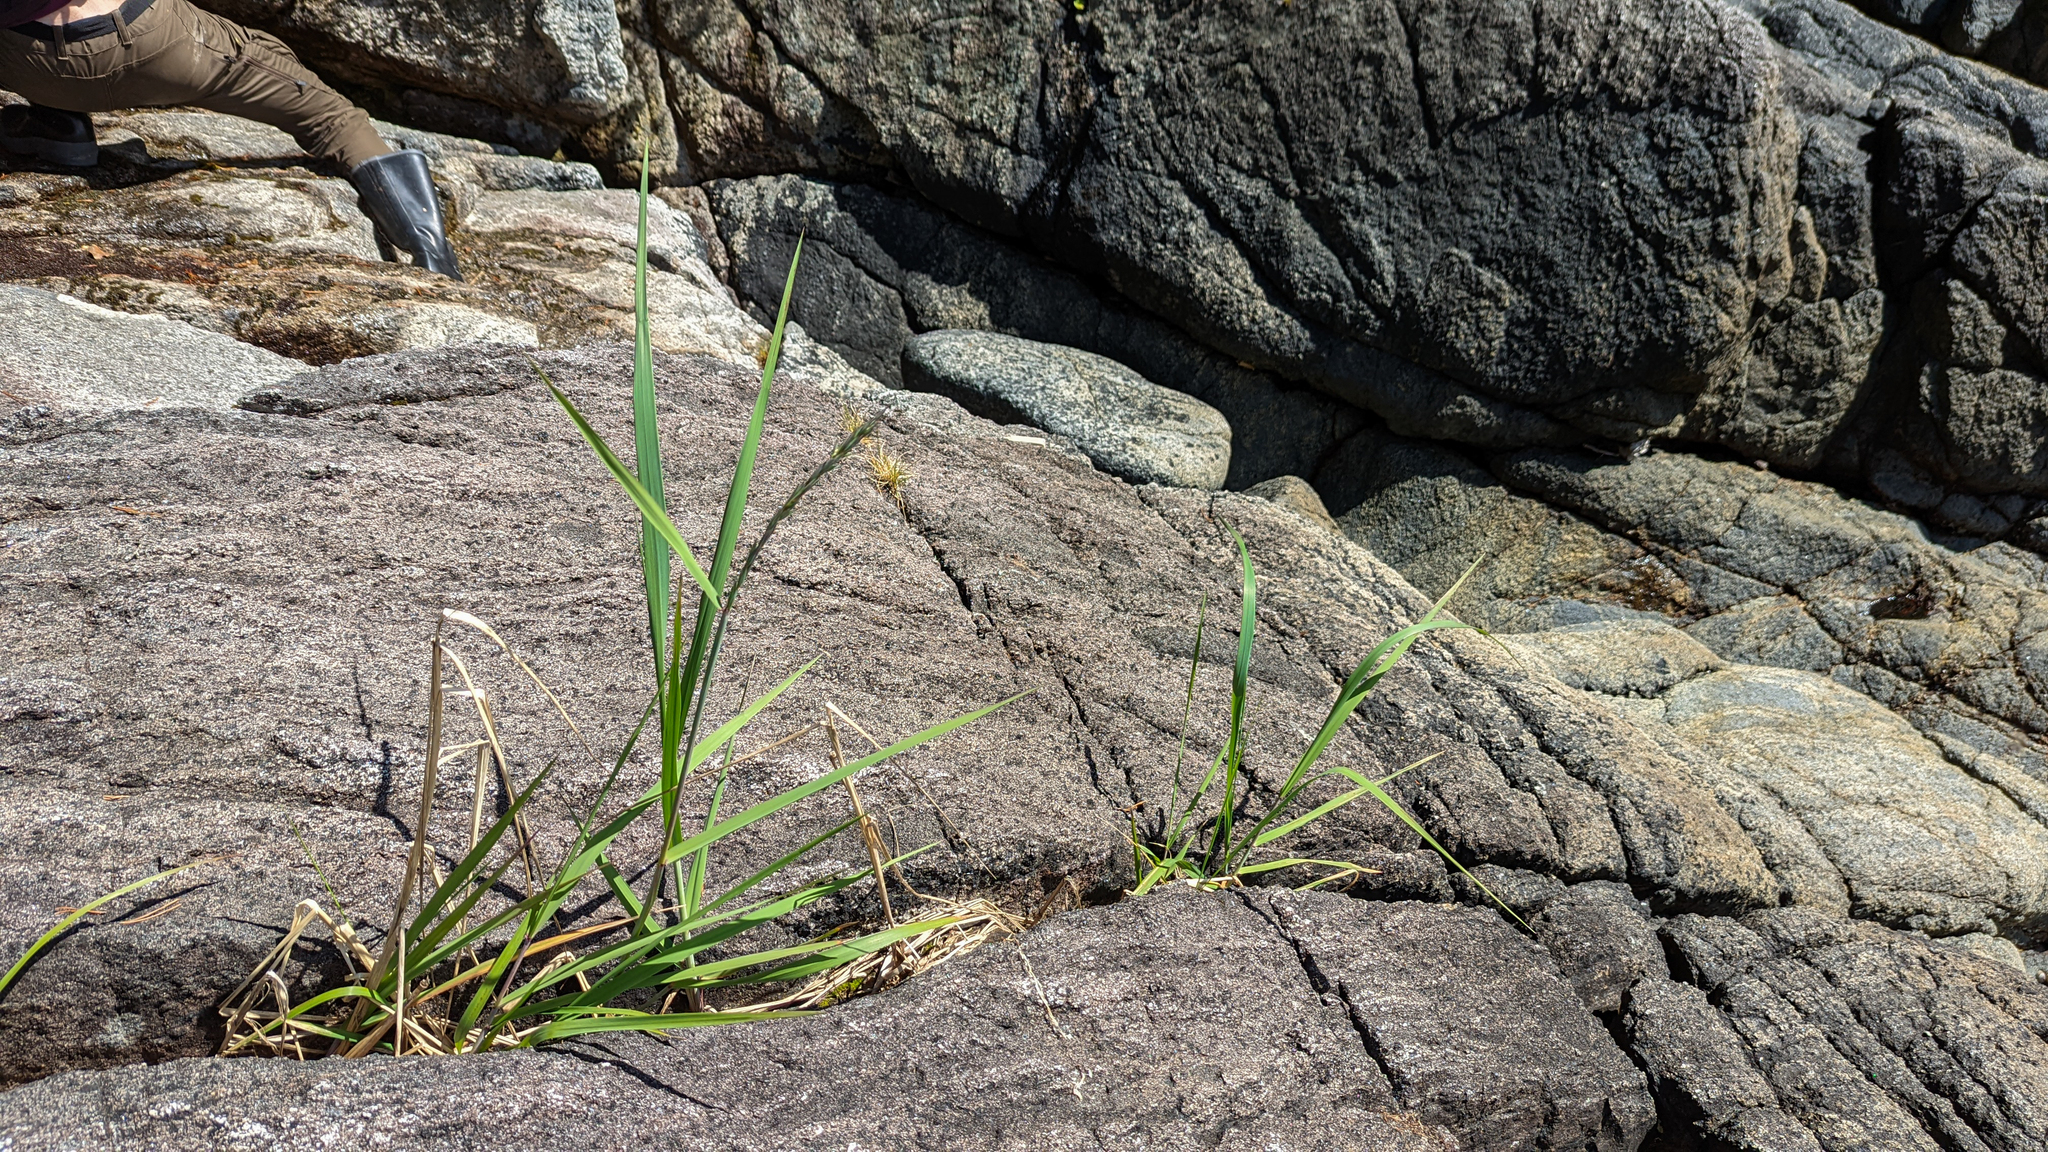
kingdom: Plantae
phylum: Tracheophyta
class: Liliopsida
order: Poales
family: Cyperaceae
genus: Carex
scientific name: Carex pluriflora
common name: Manyflower sedge
